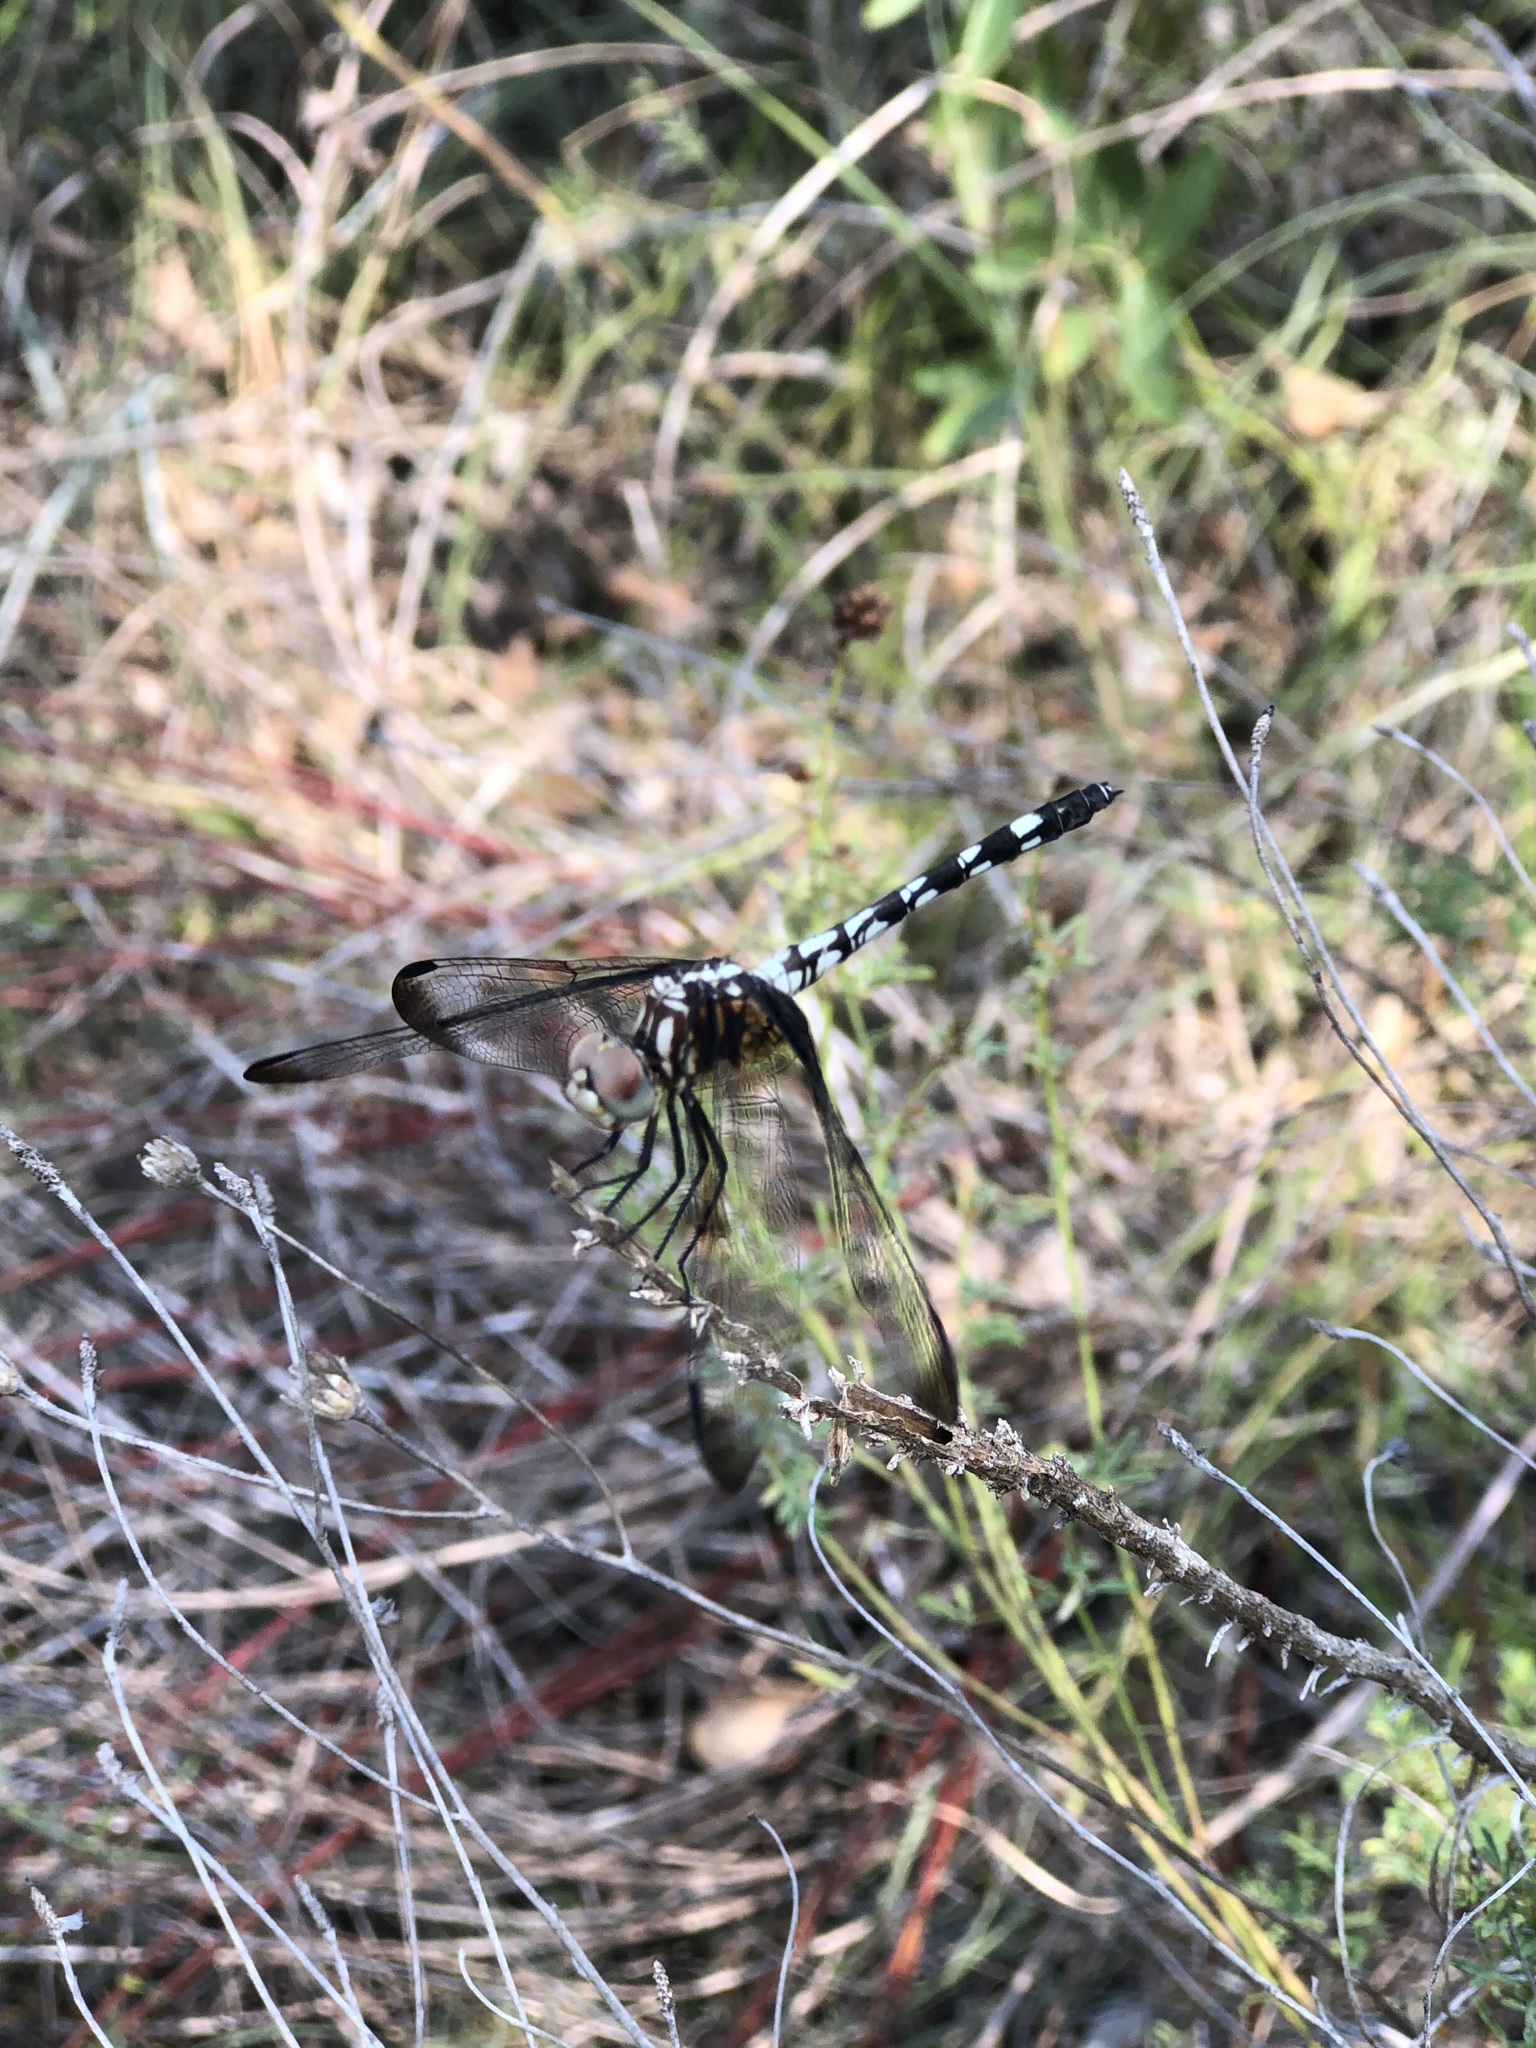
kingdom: Animalia
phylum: Arthropoda
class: Insecta
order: Odonata
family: Libellulidae
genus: Dythemis
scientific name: Dythemis fugax
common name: Checkered setwing
